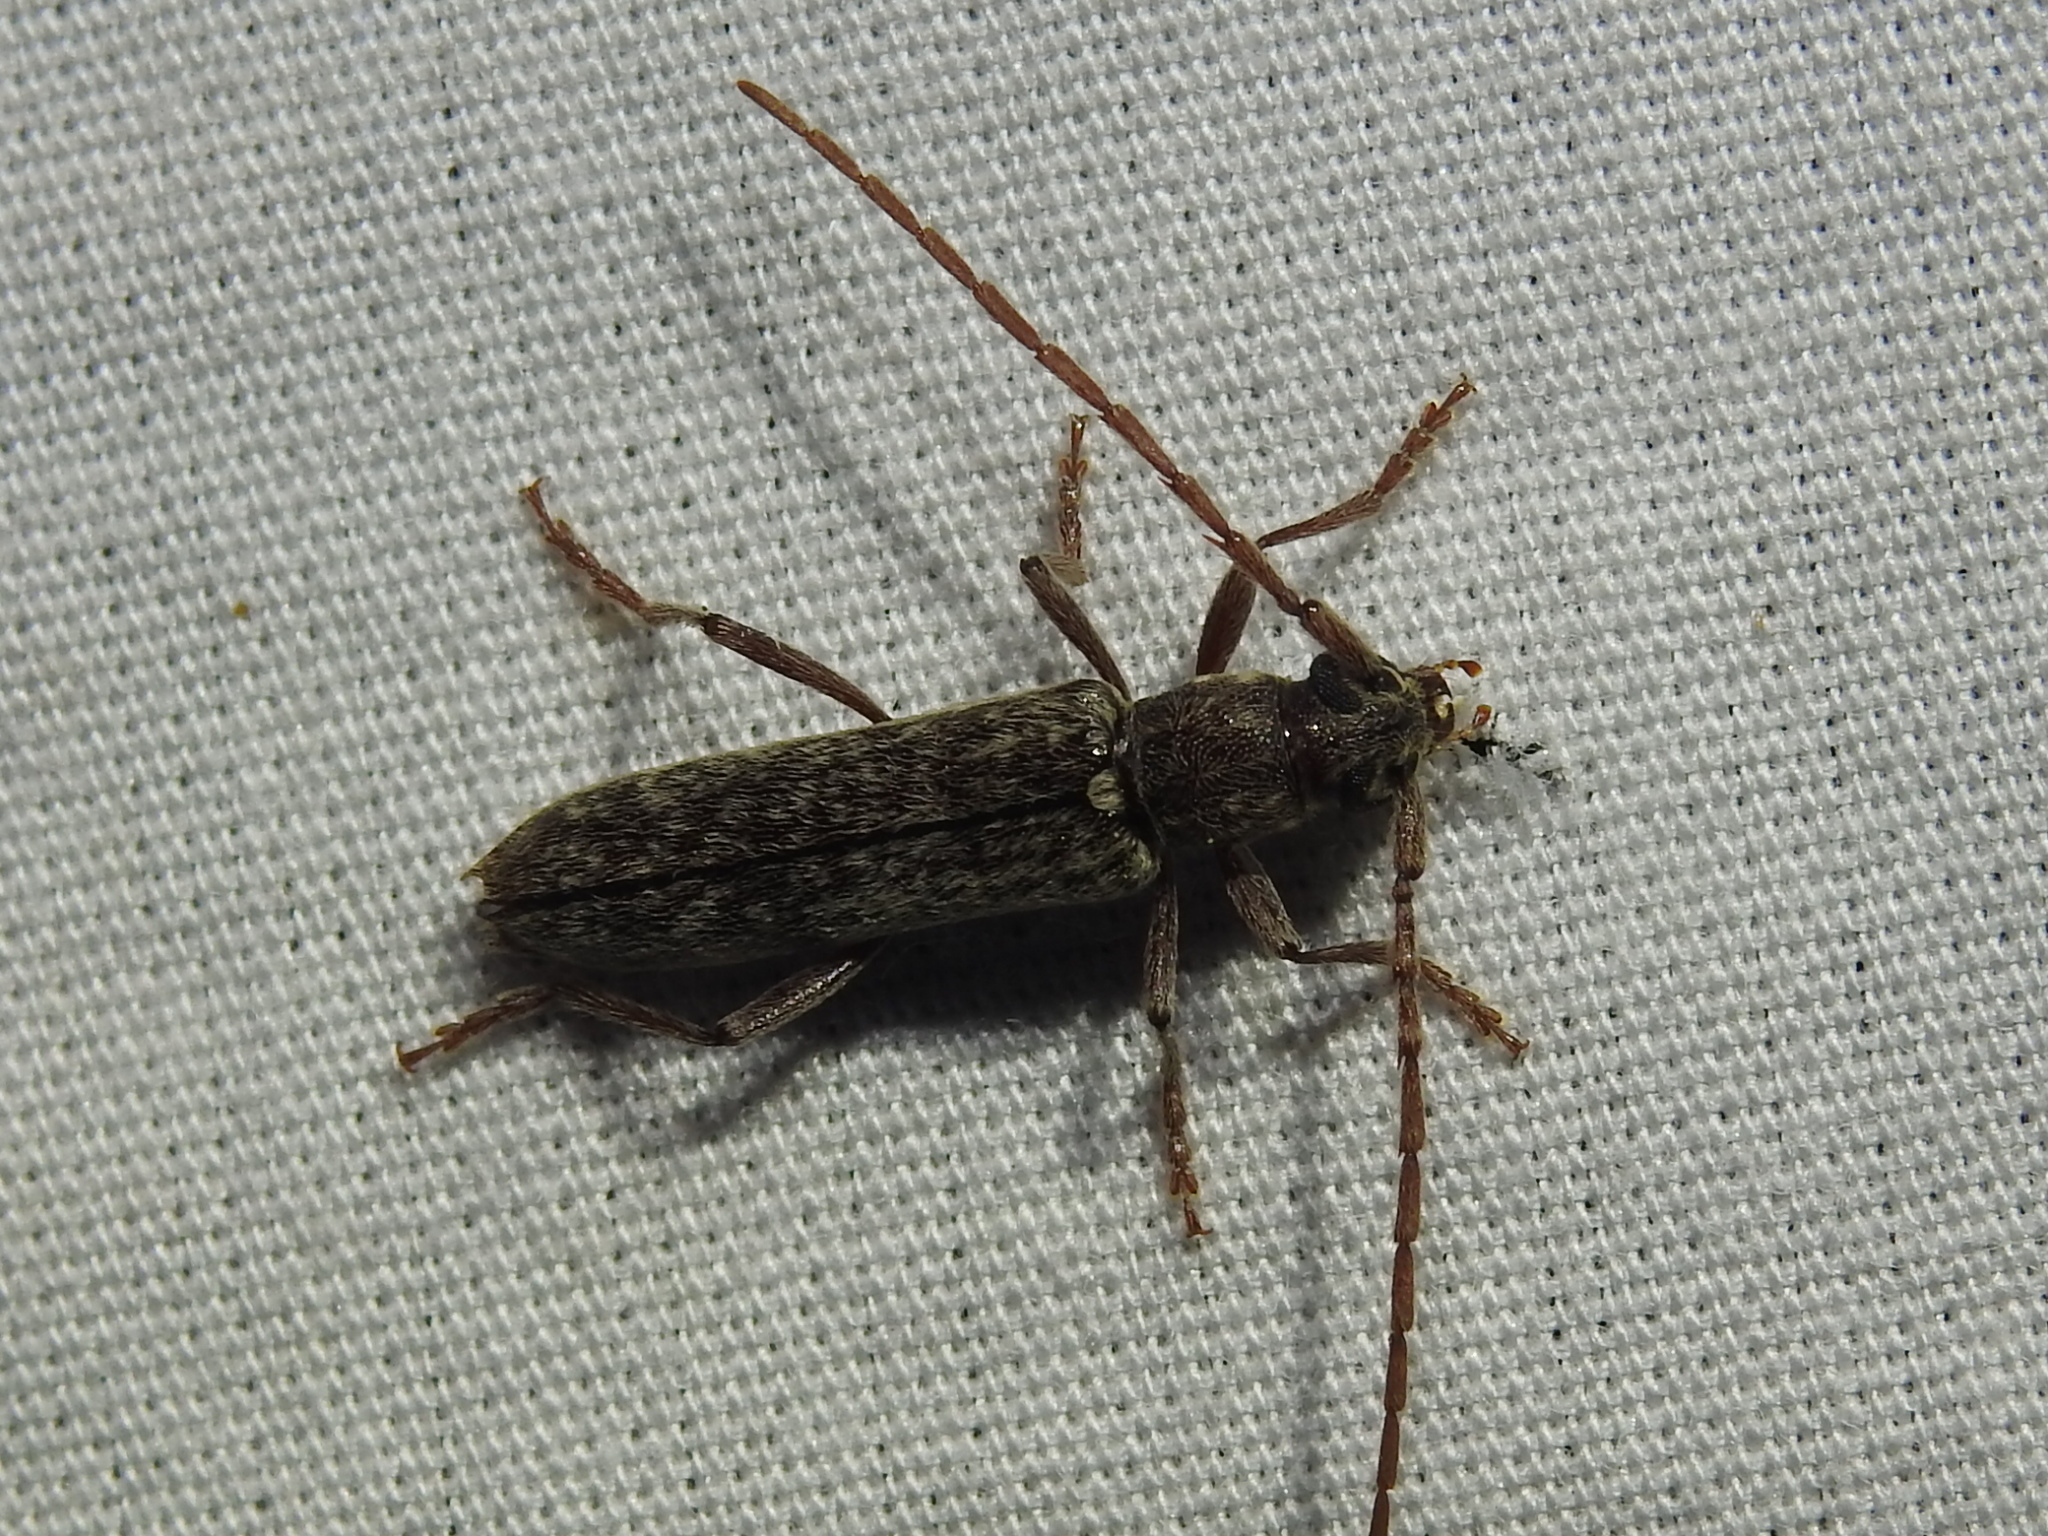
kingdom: Animalia
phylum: Arthropoda
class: Insecta
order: Coleoptera
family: Cerambycidae
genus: Anelaphus
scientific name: Anelaphus villosus
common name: Twig pruner
